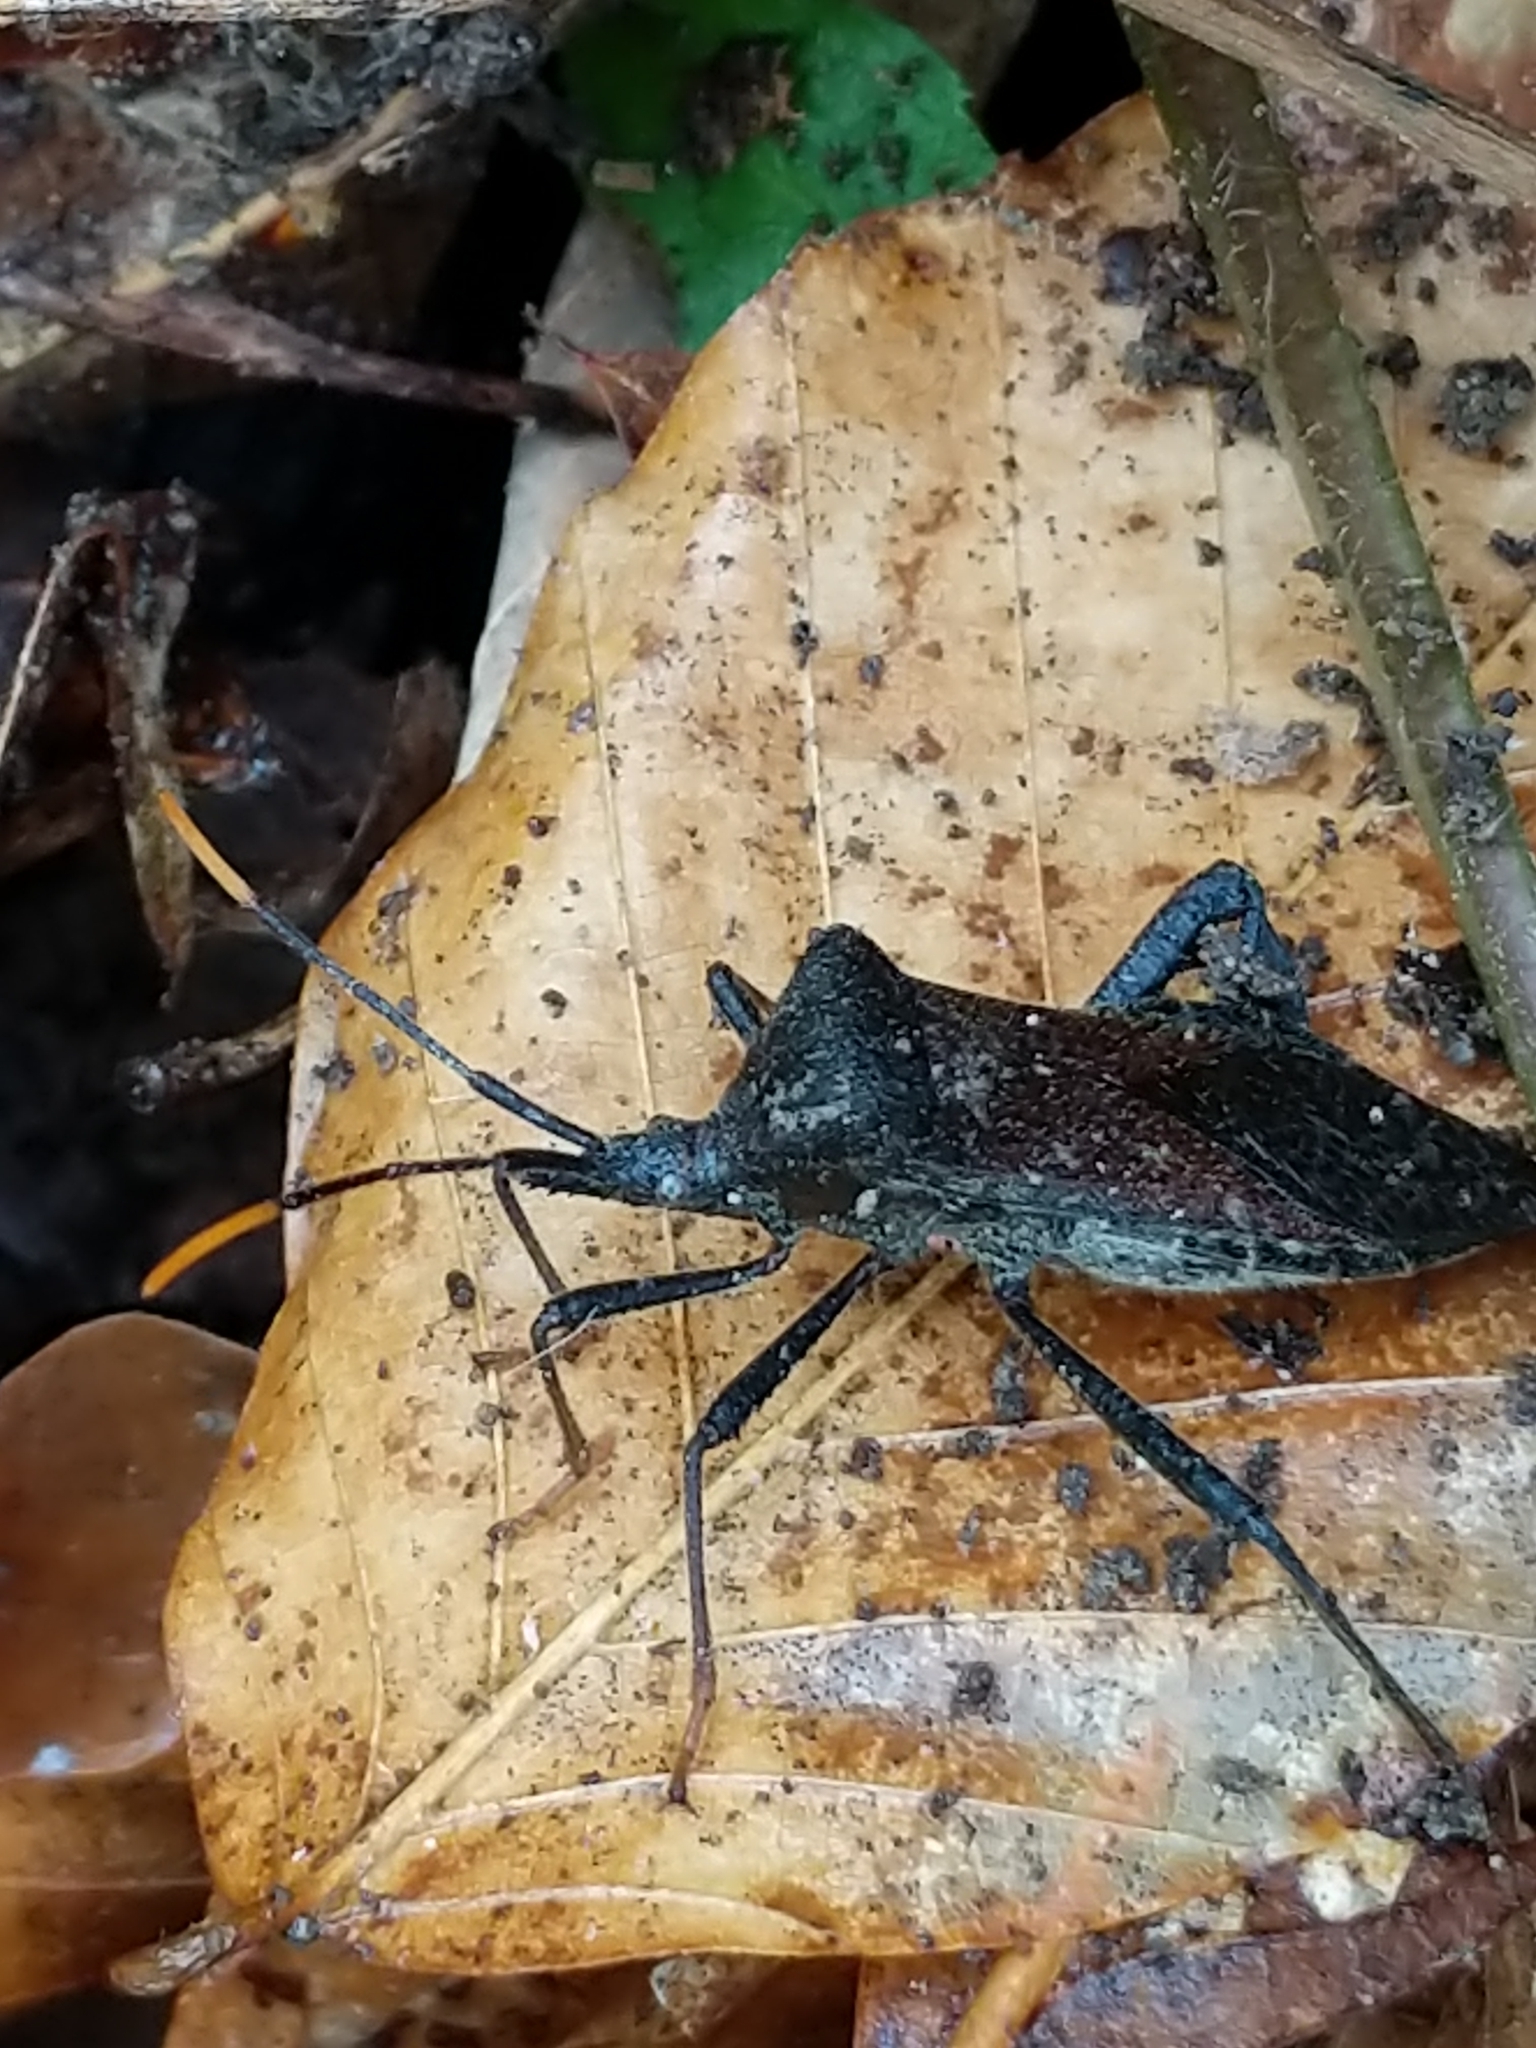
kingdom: Animalia
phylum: Arthropoda
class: Insecta
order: Hemiptera
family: Coreidae
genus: Acanthocephala
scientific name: Acanthocephala terminalis
